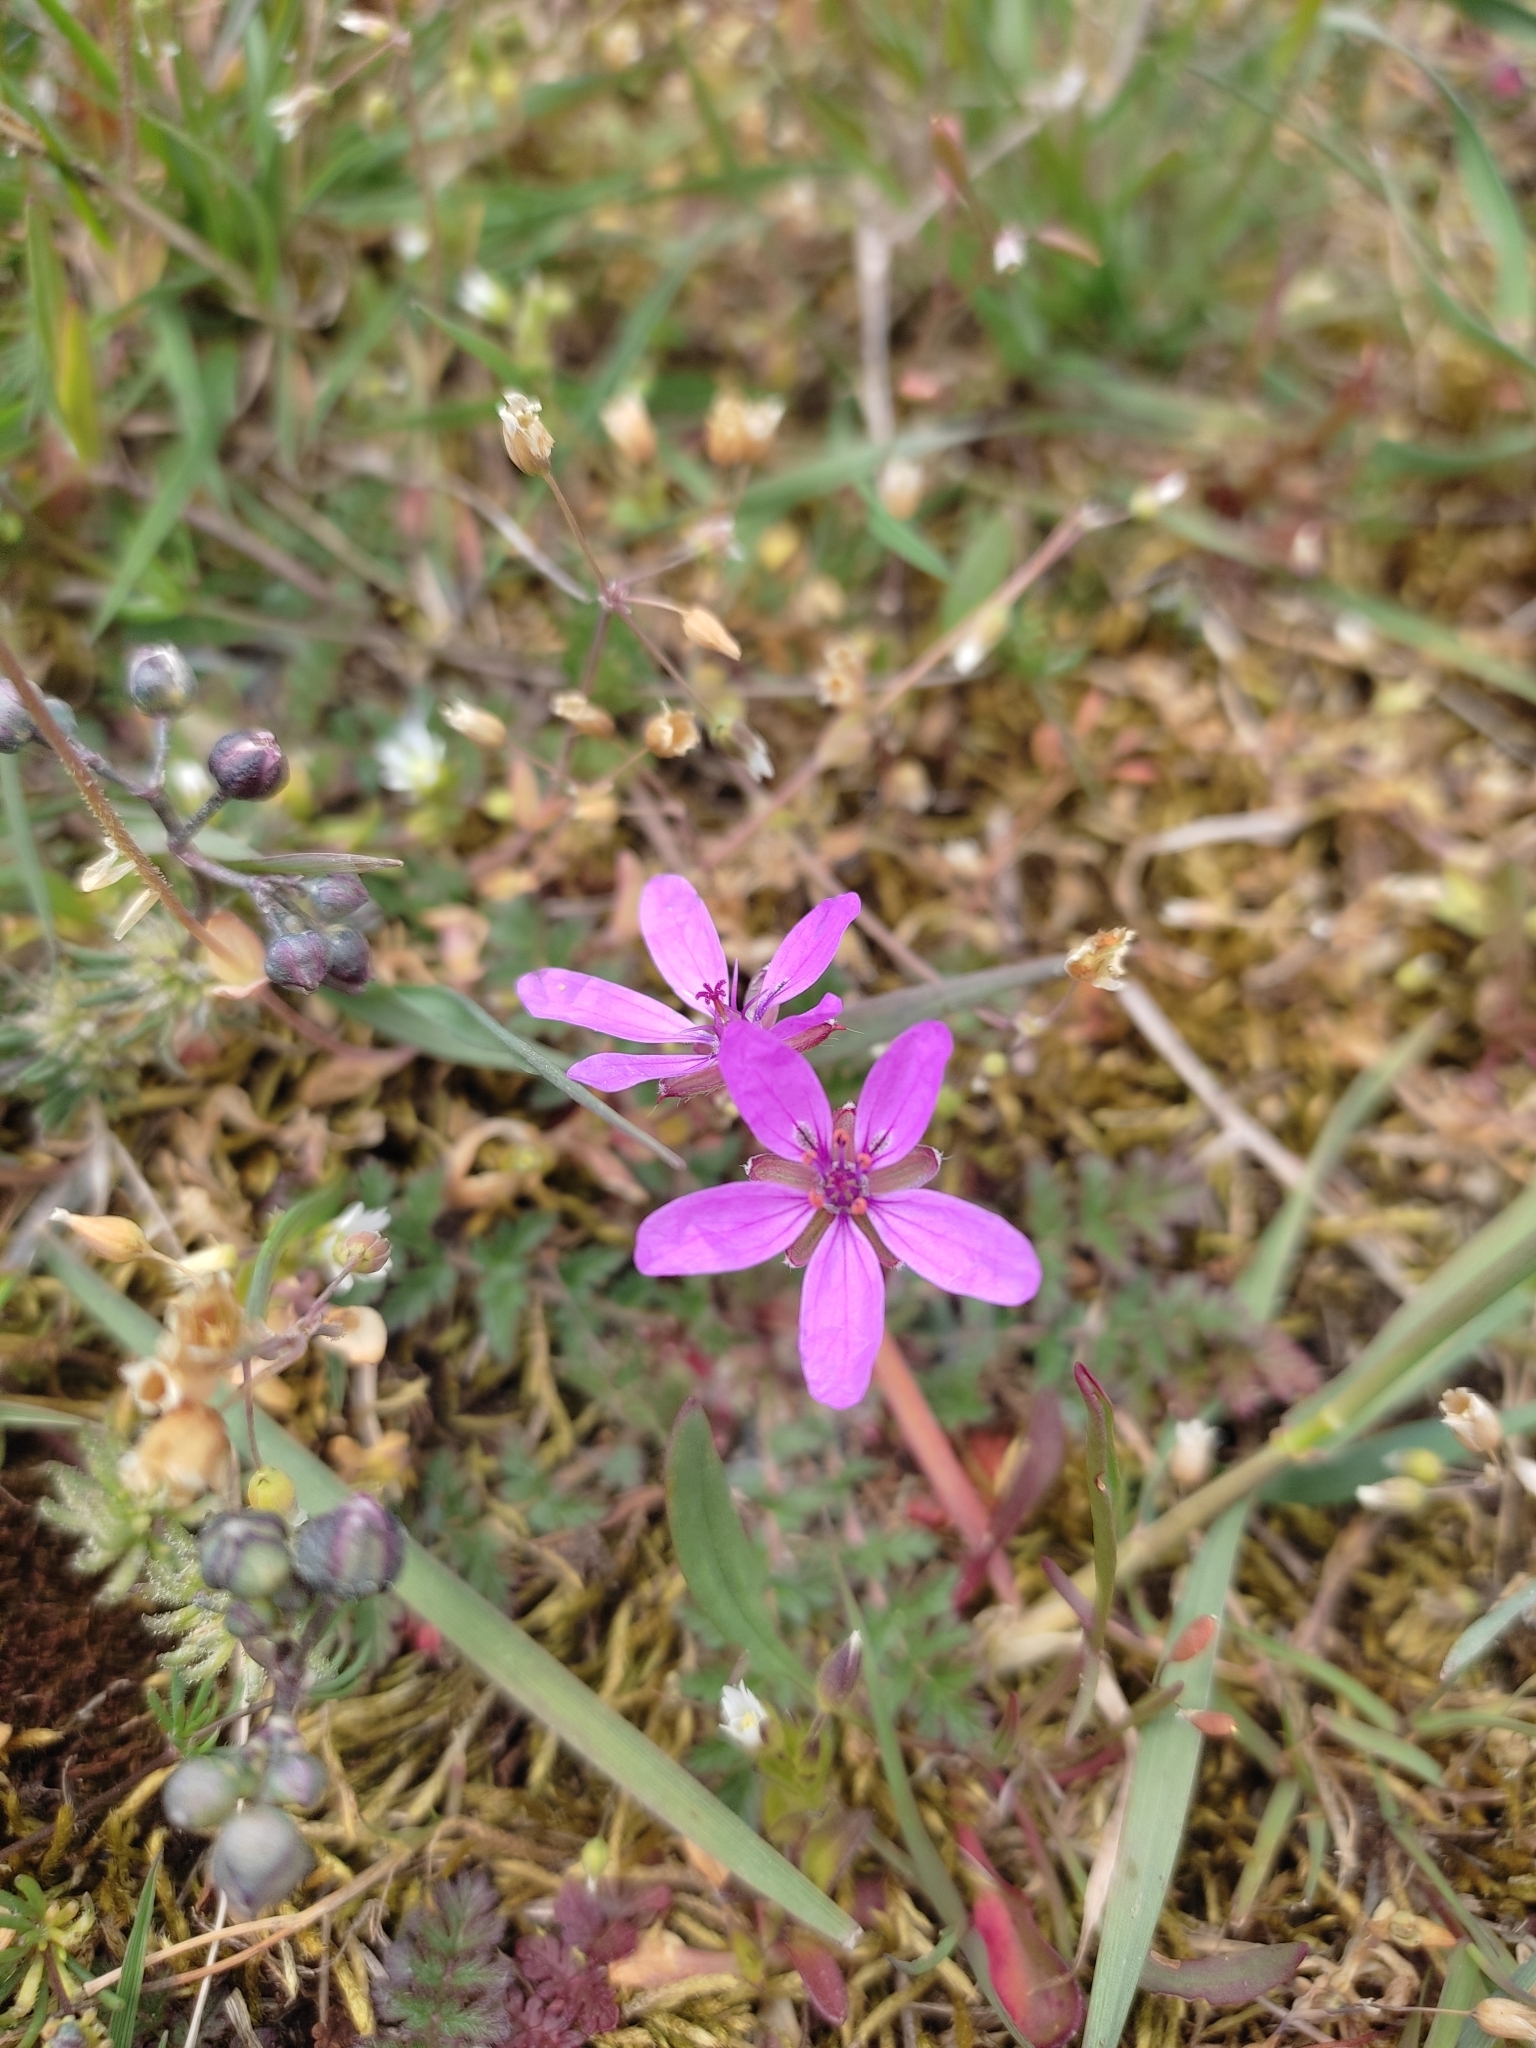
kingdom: Plantae
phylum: Tracheophyta
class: Magnoliopsida
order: Geraniales
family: Geraniaceae
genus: Erodium
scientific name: Erodium cicutarium
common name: Common stork's-bill
